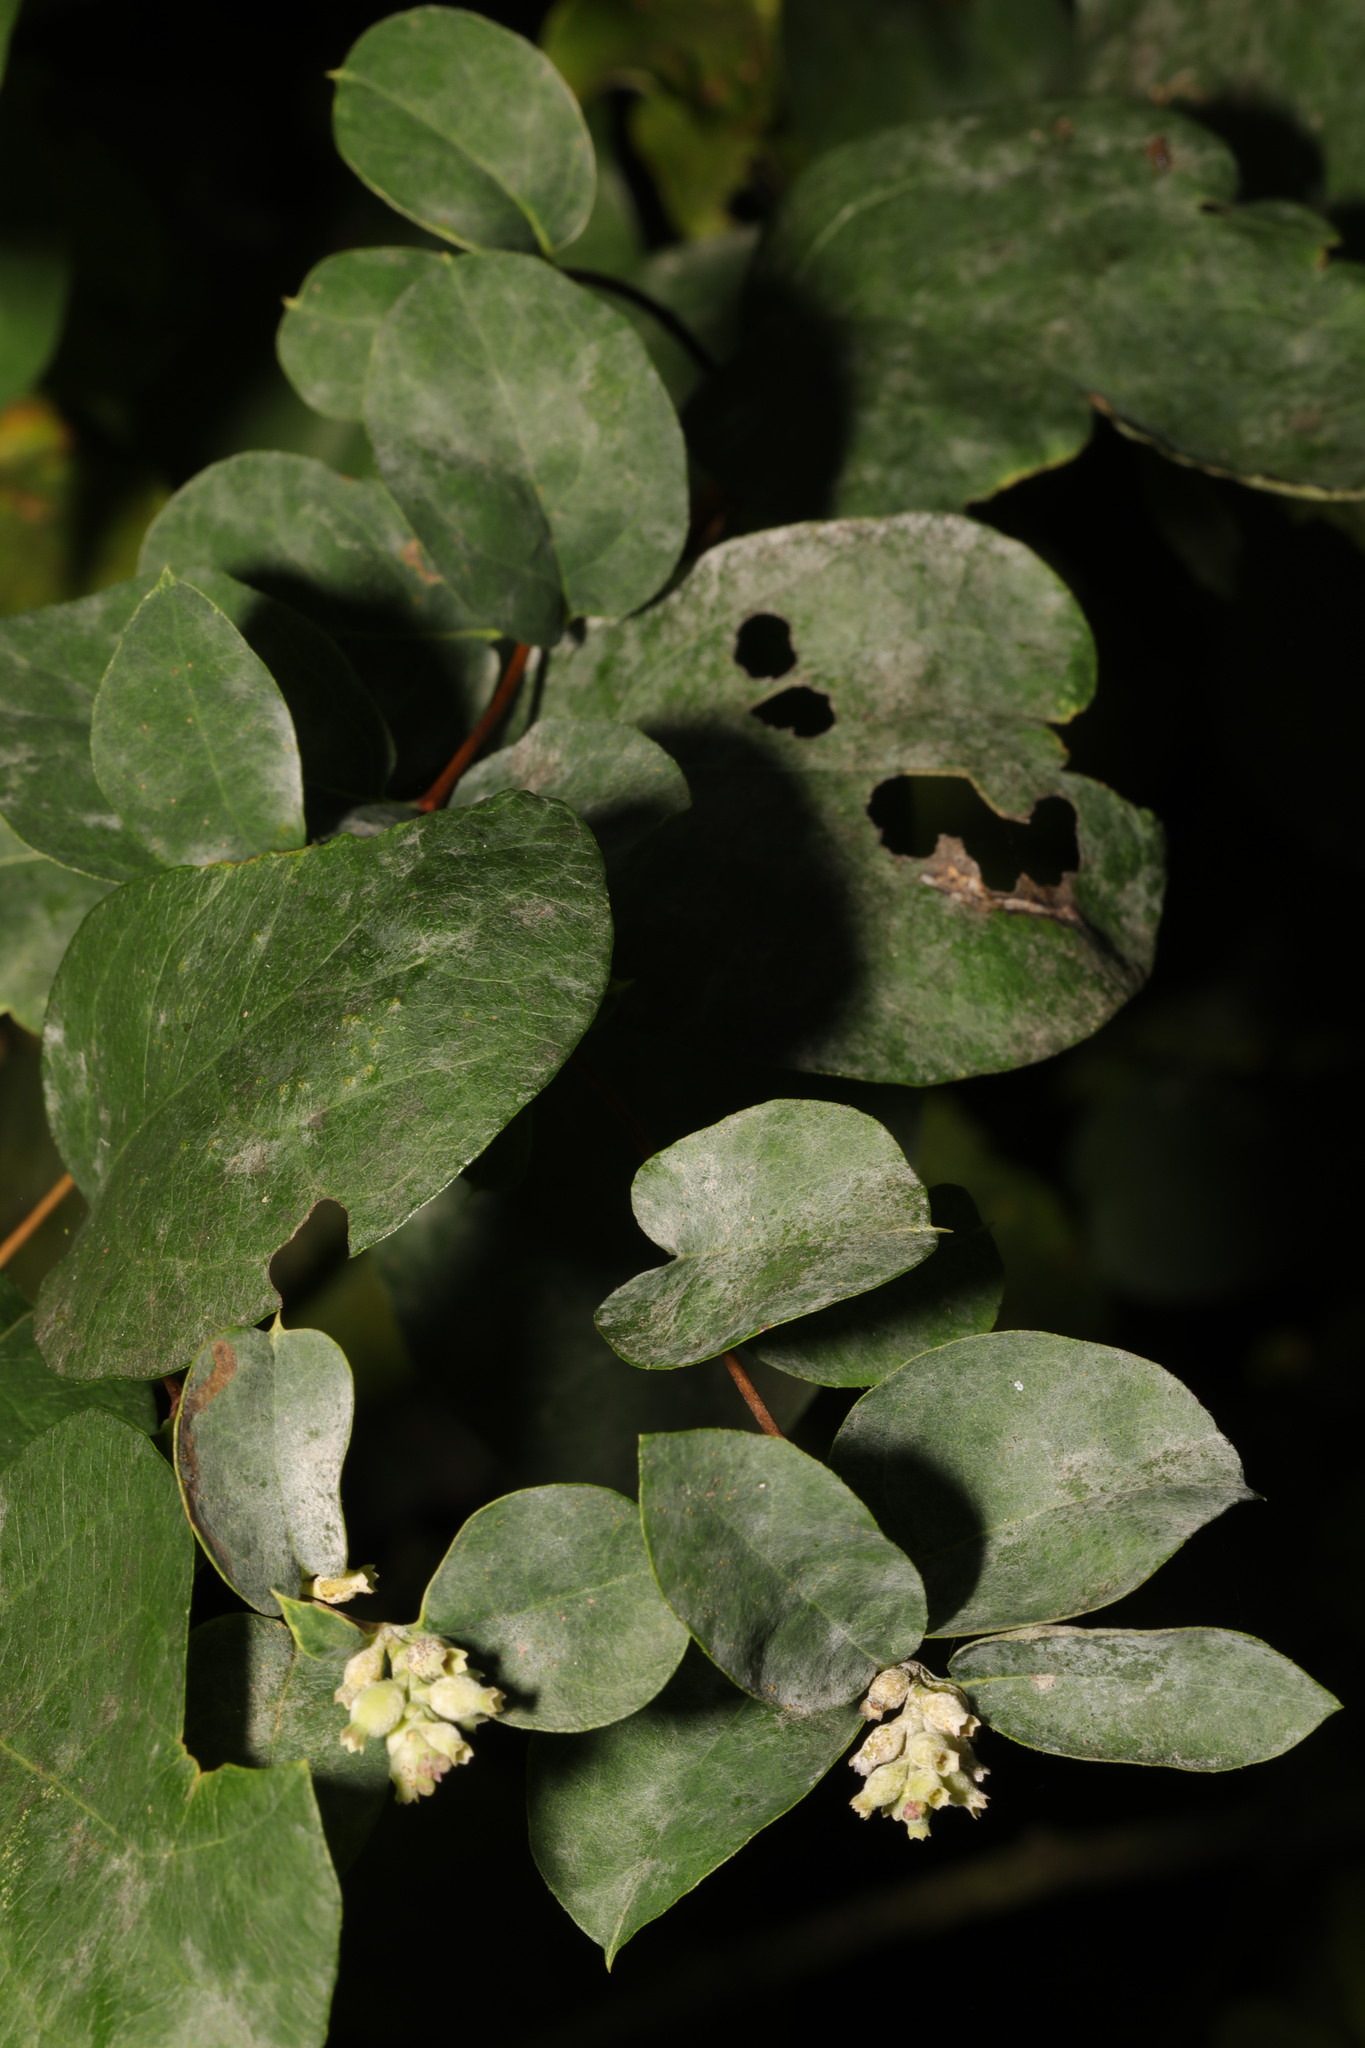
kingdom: Fungi
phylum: Ascomycota
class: Leotiomycetes
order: Helotiales
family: Erysiphaceae
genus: Erysiphe
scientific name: Erysiphe symphoricarpi
